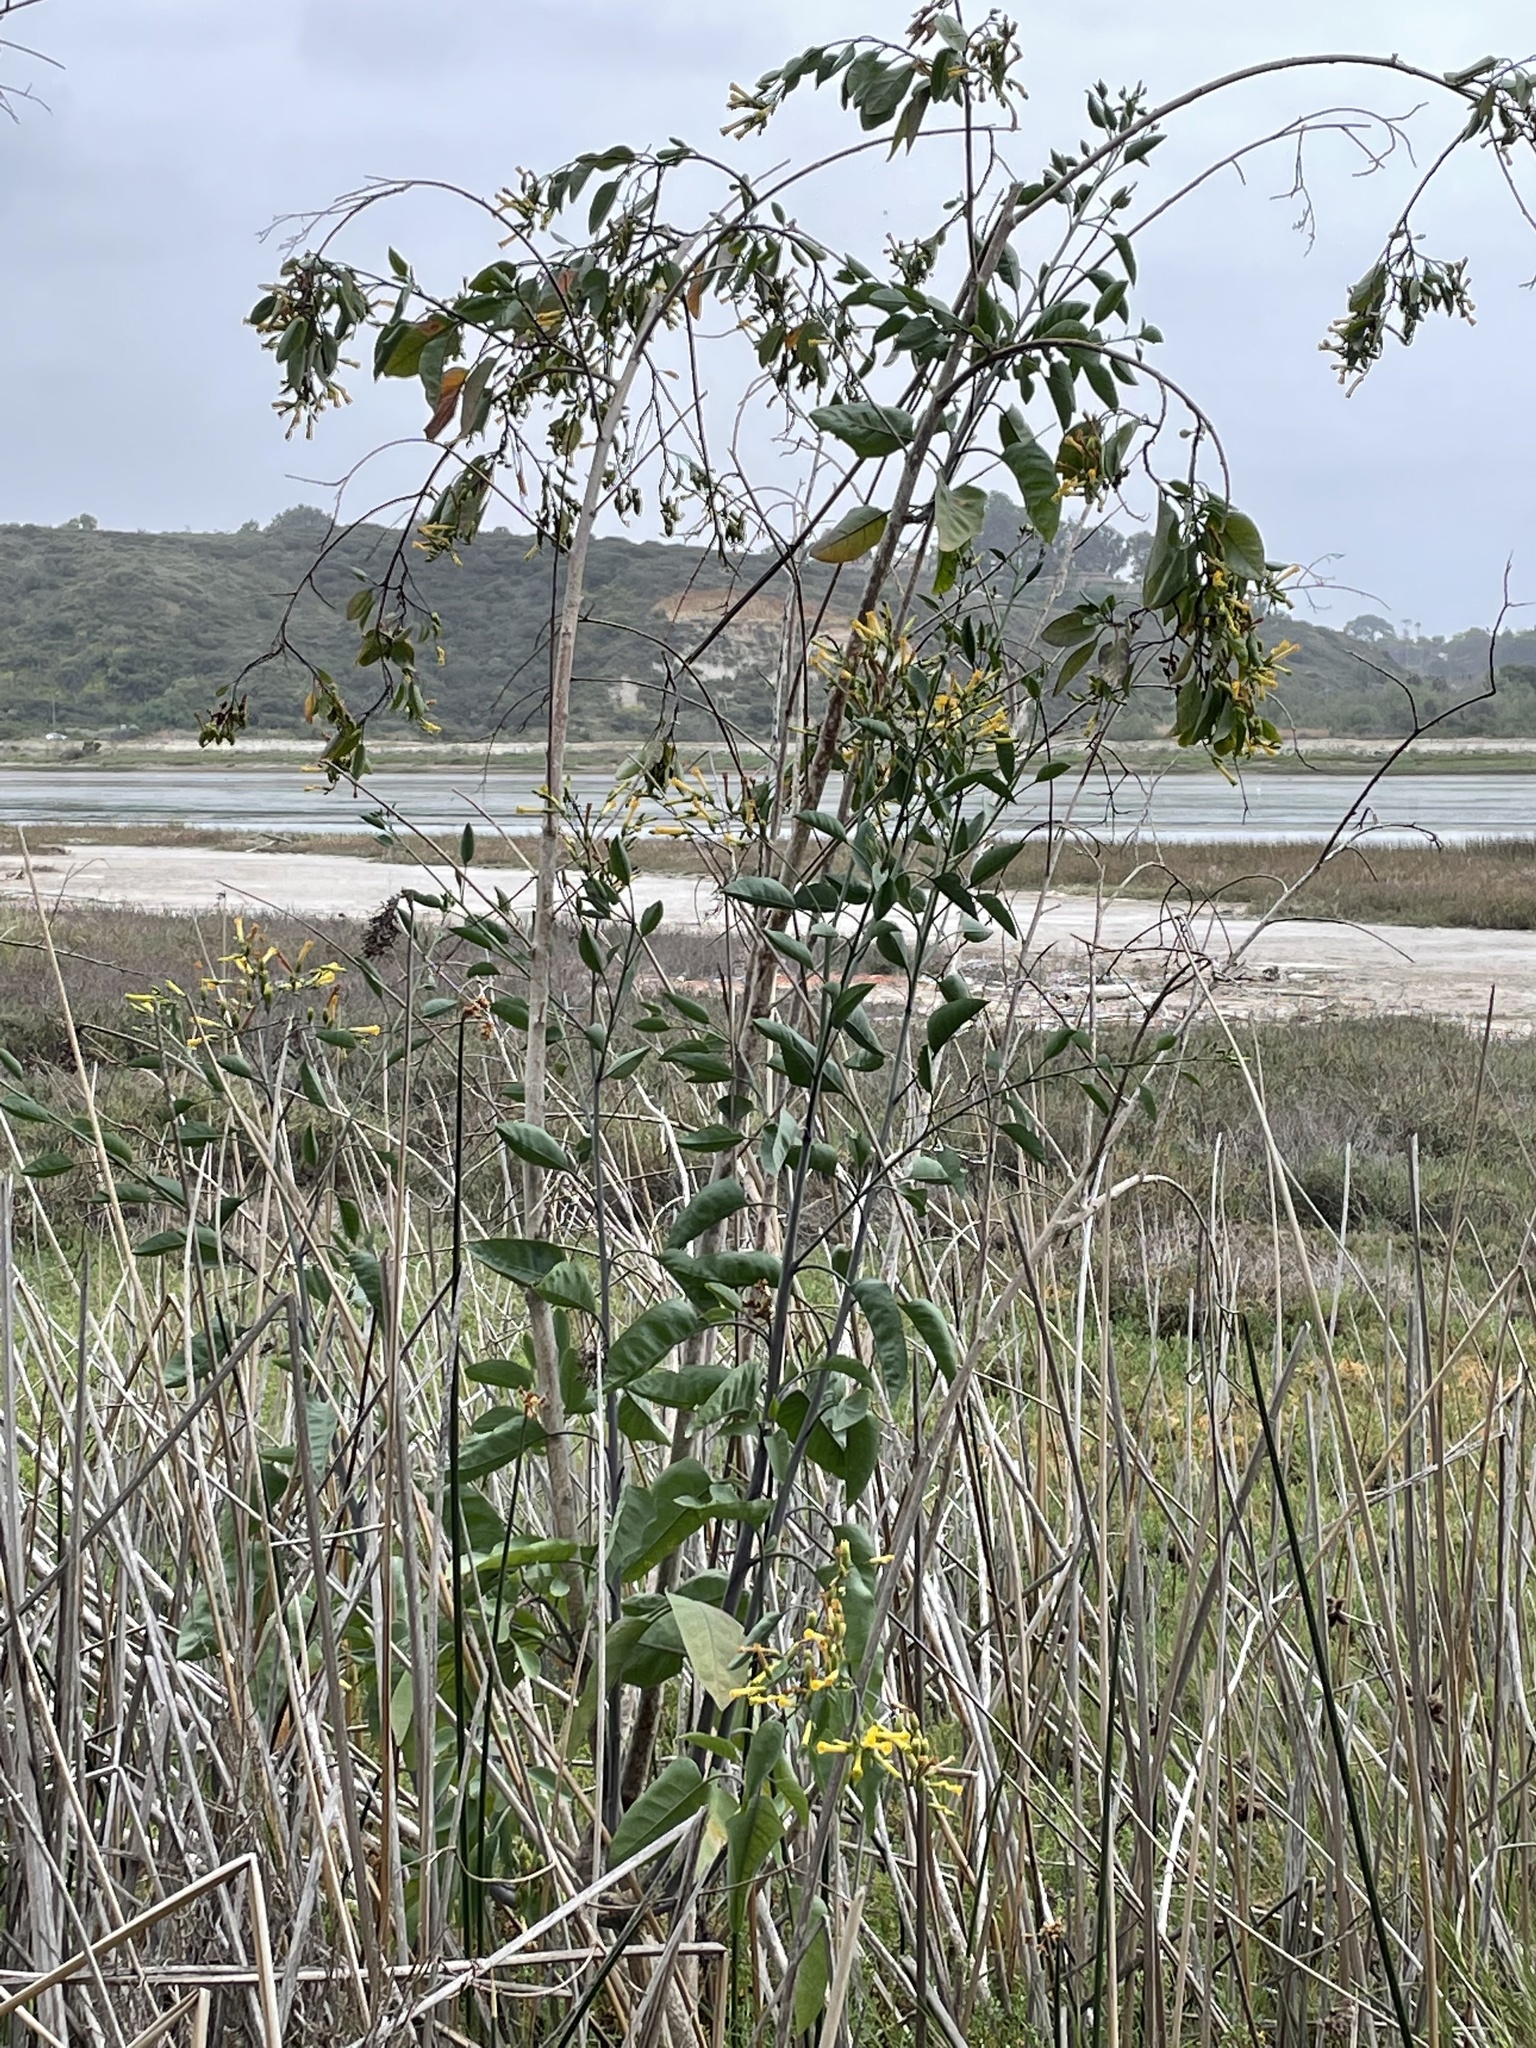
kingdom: Plantae
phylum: Tracheophyta
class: Magnoliopsida
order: Solanales
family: Solanaceae
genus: Nicotiana
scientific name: Nicotiana glauca
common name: Tree tobacco
